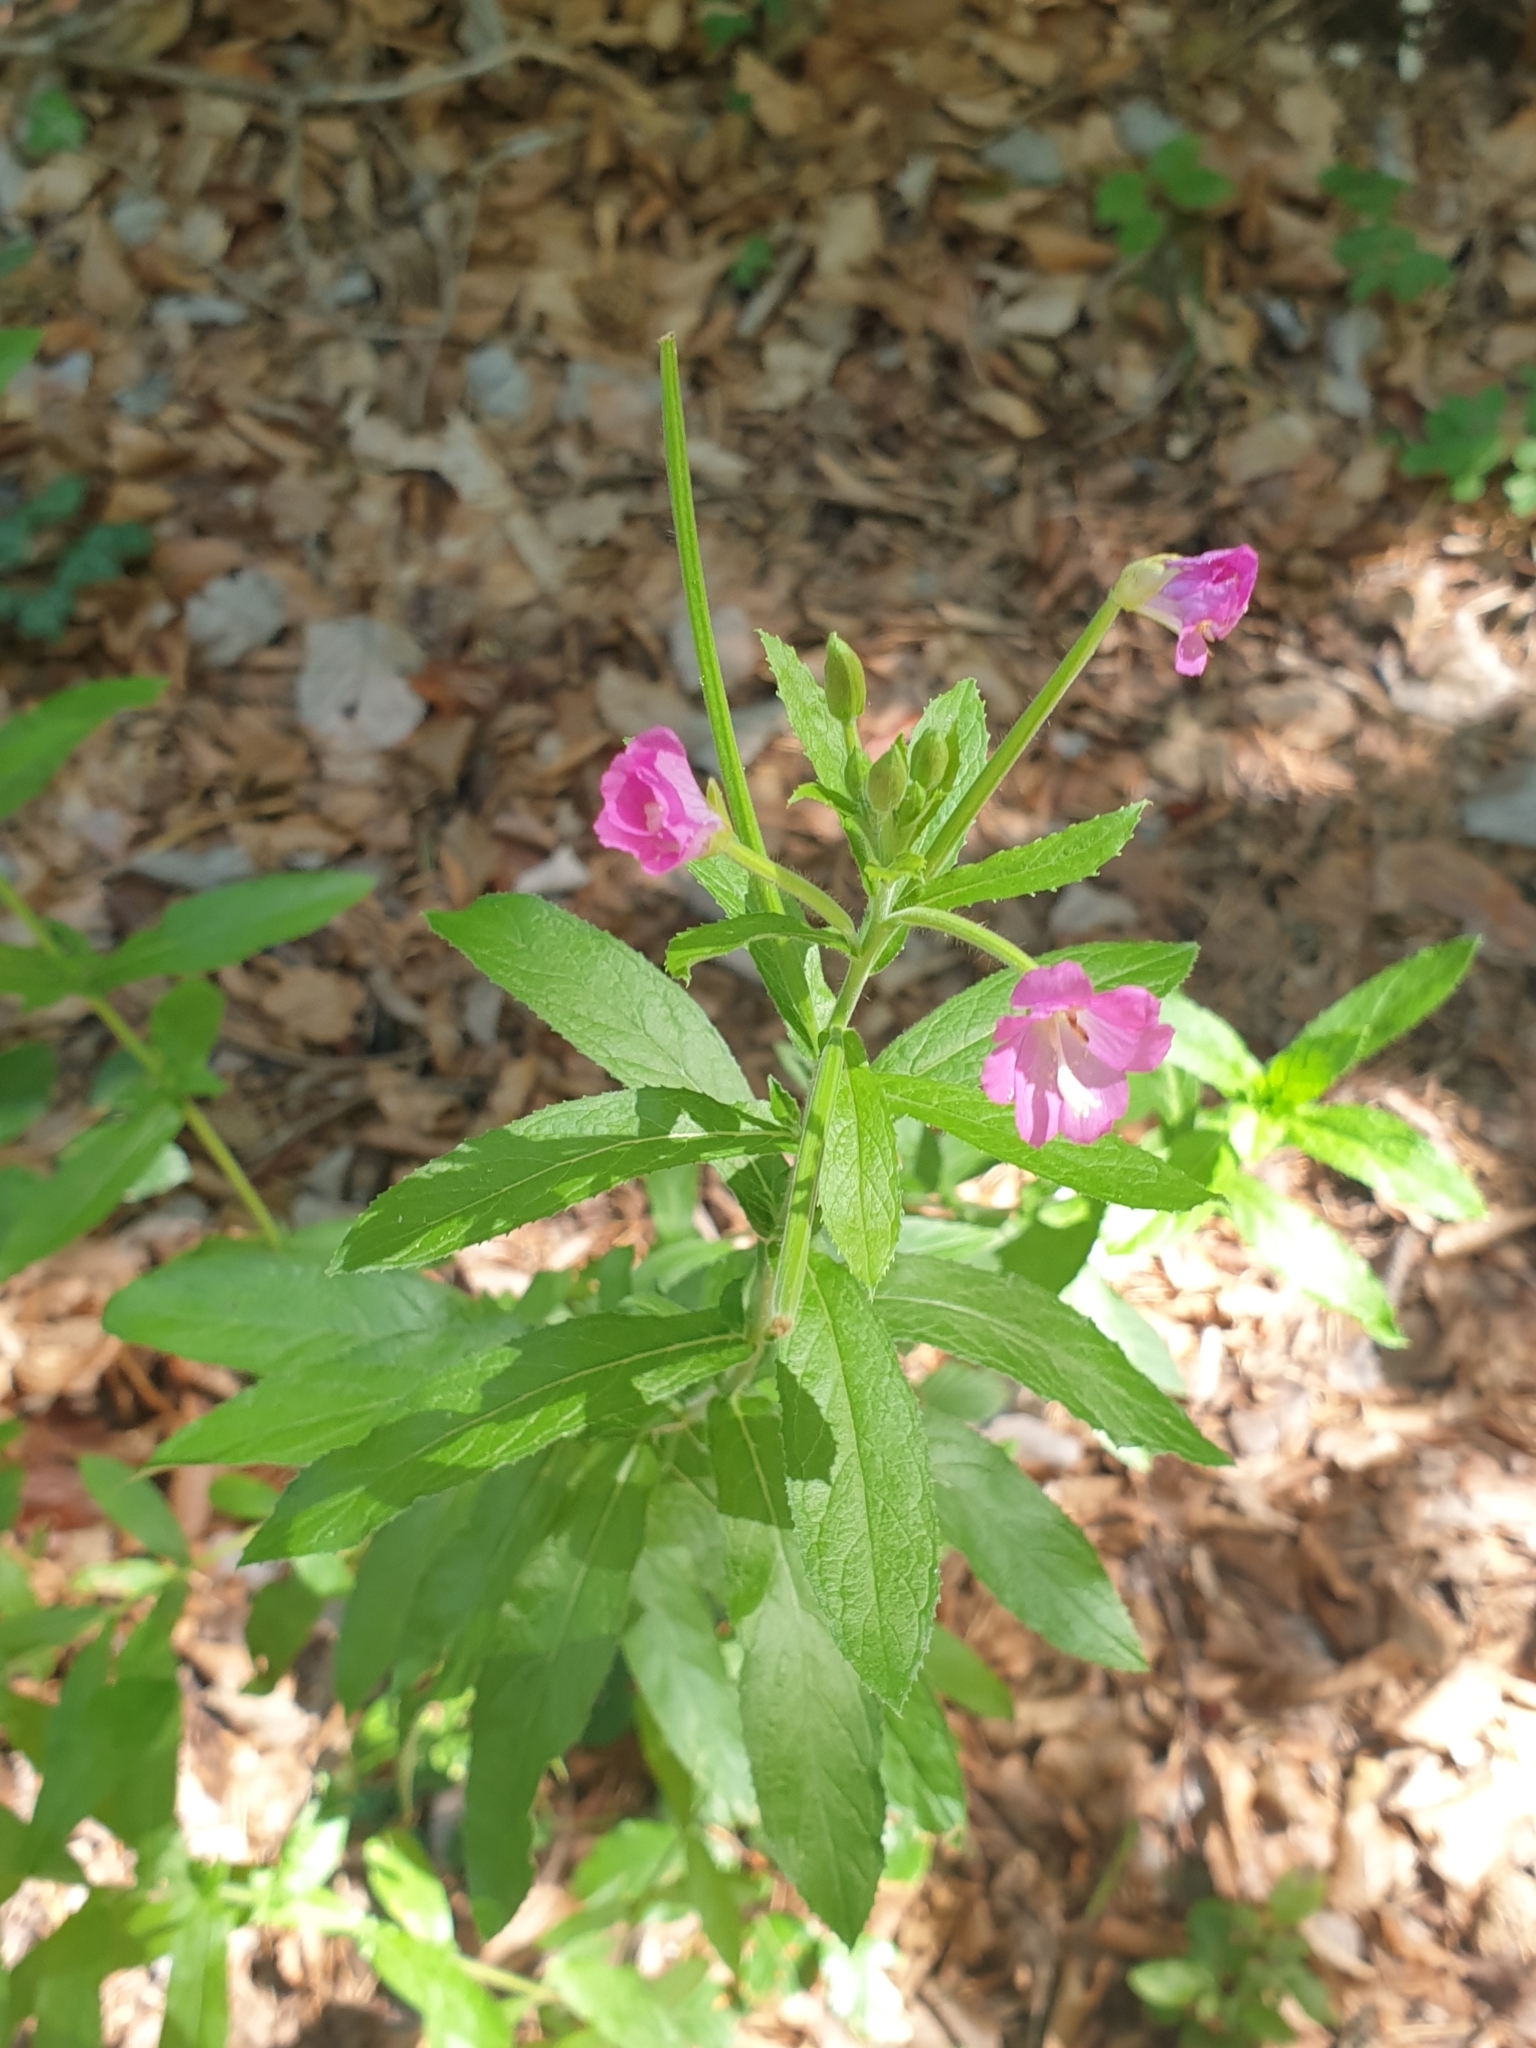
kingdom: Plantae
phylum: Tracheophyta
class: Magnoliopsida
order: Myrtales
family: Onagraceae
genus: Epilobium
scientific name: Epilobium hirsutum
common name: Great willowherb
